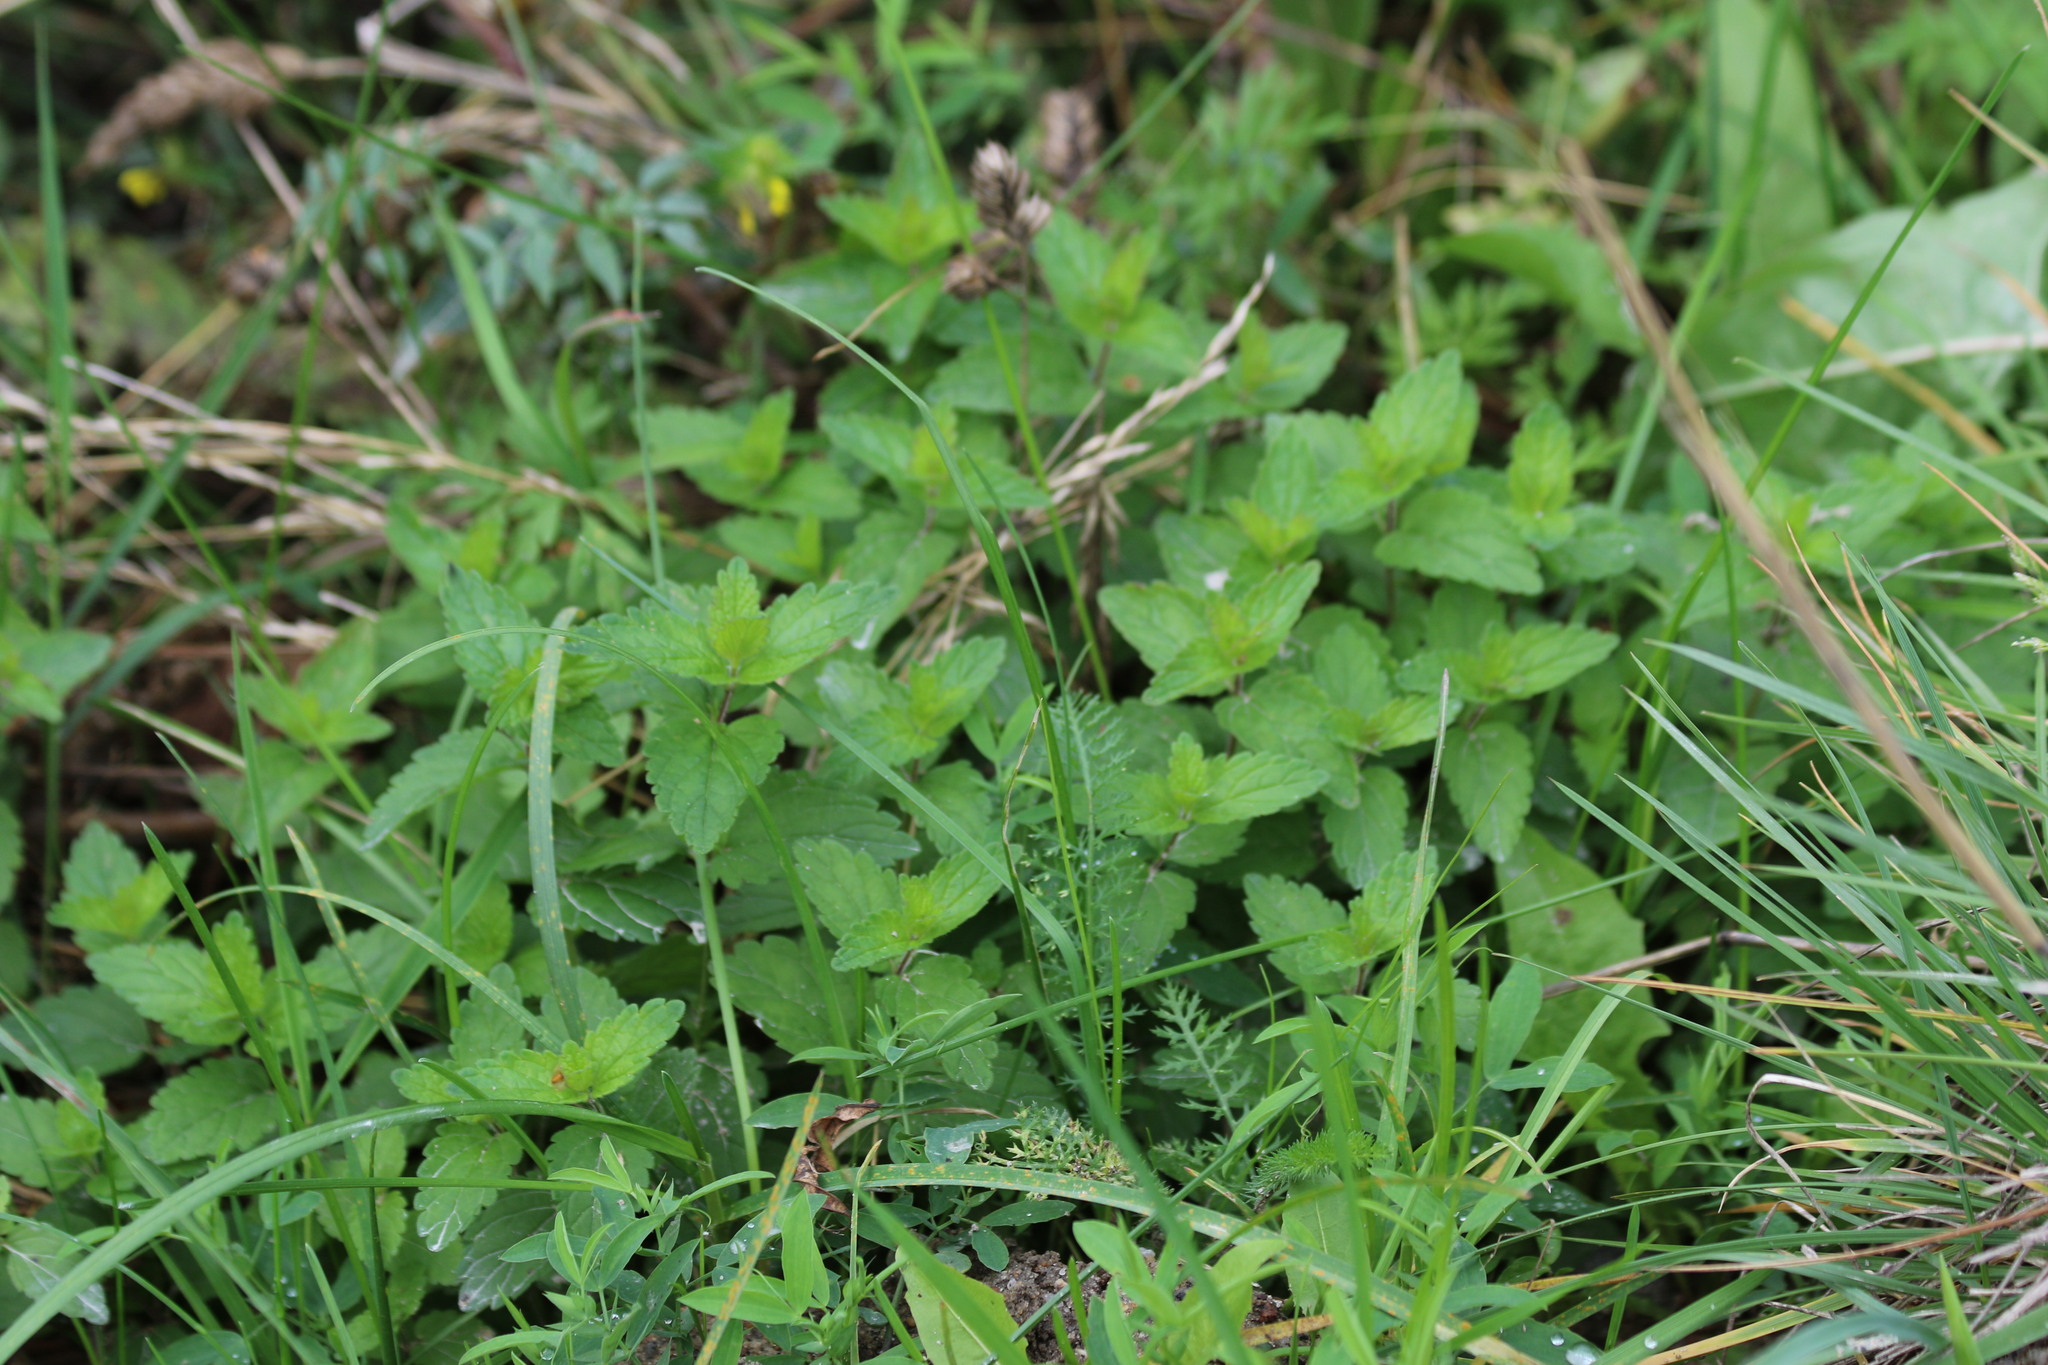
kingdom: Plantae
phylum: Tracheophyta
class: Magnoliopsida
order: Lamiales
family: Plantaginaceae
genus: Veronica
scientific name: Veronica chamaedrys
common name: Germander speedwell
